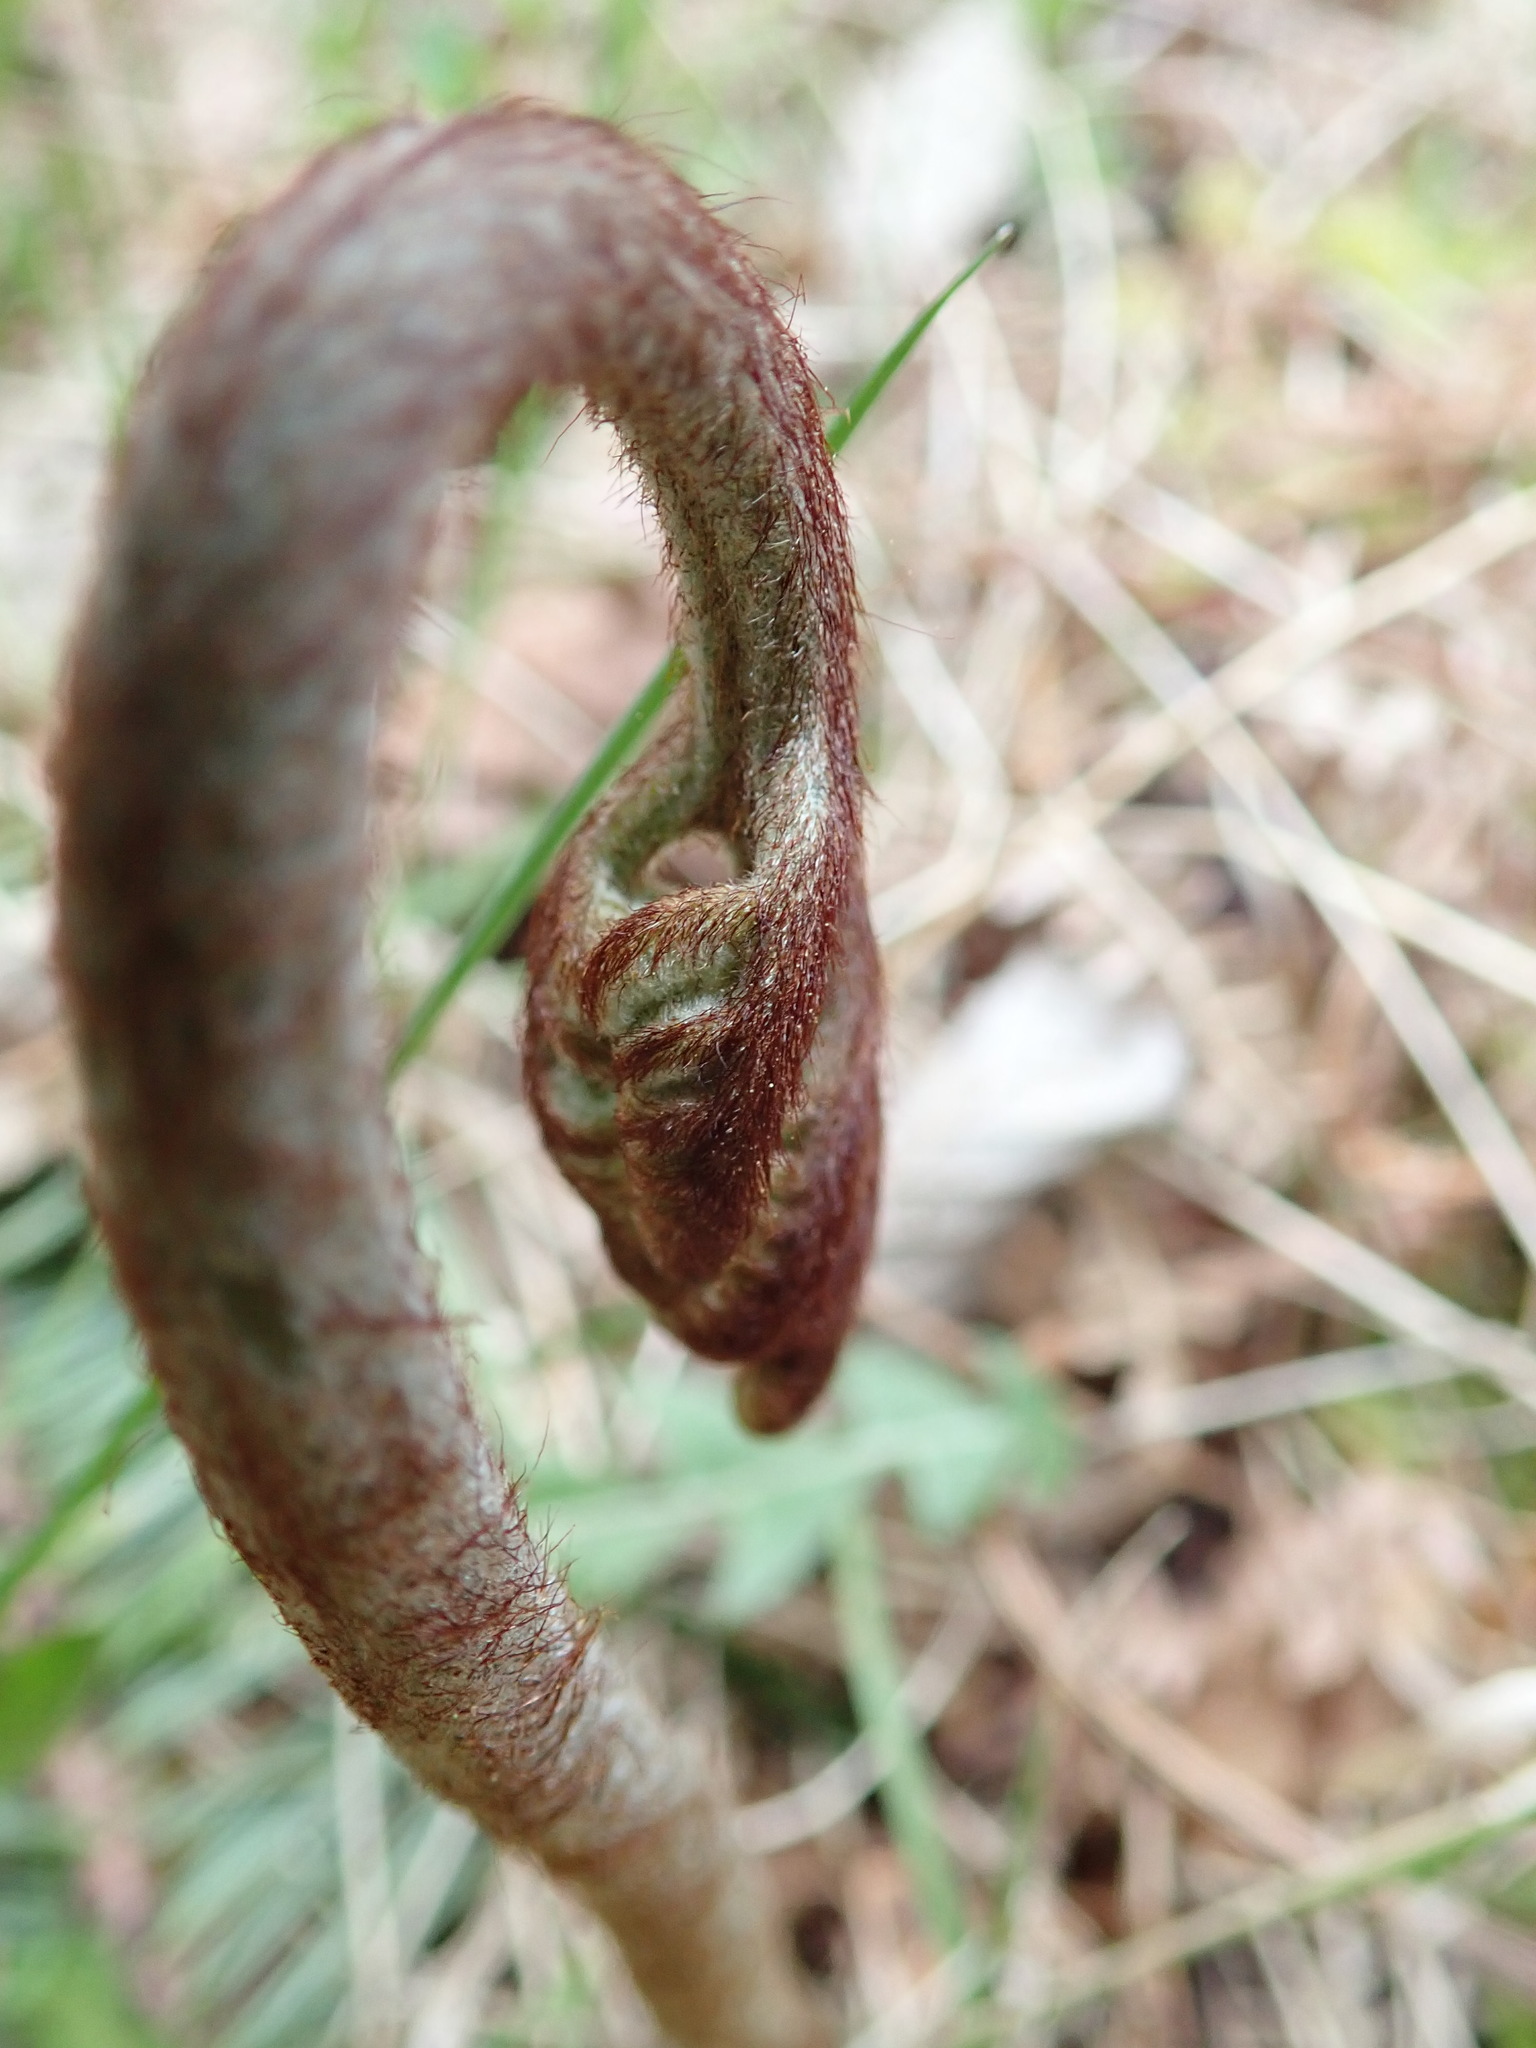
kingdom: Plantae
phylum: Tracheophyta
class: Polypodiopsida
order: Polypodiales
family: Dennstaedtiaceae
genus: Pteridium
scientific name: Pteridium aquilinum
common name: Bracken
